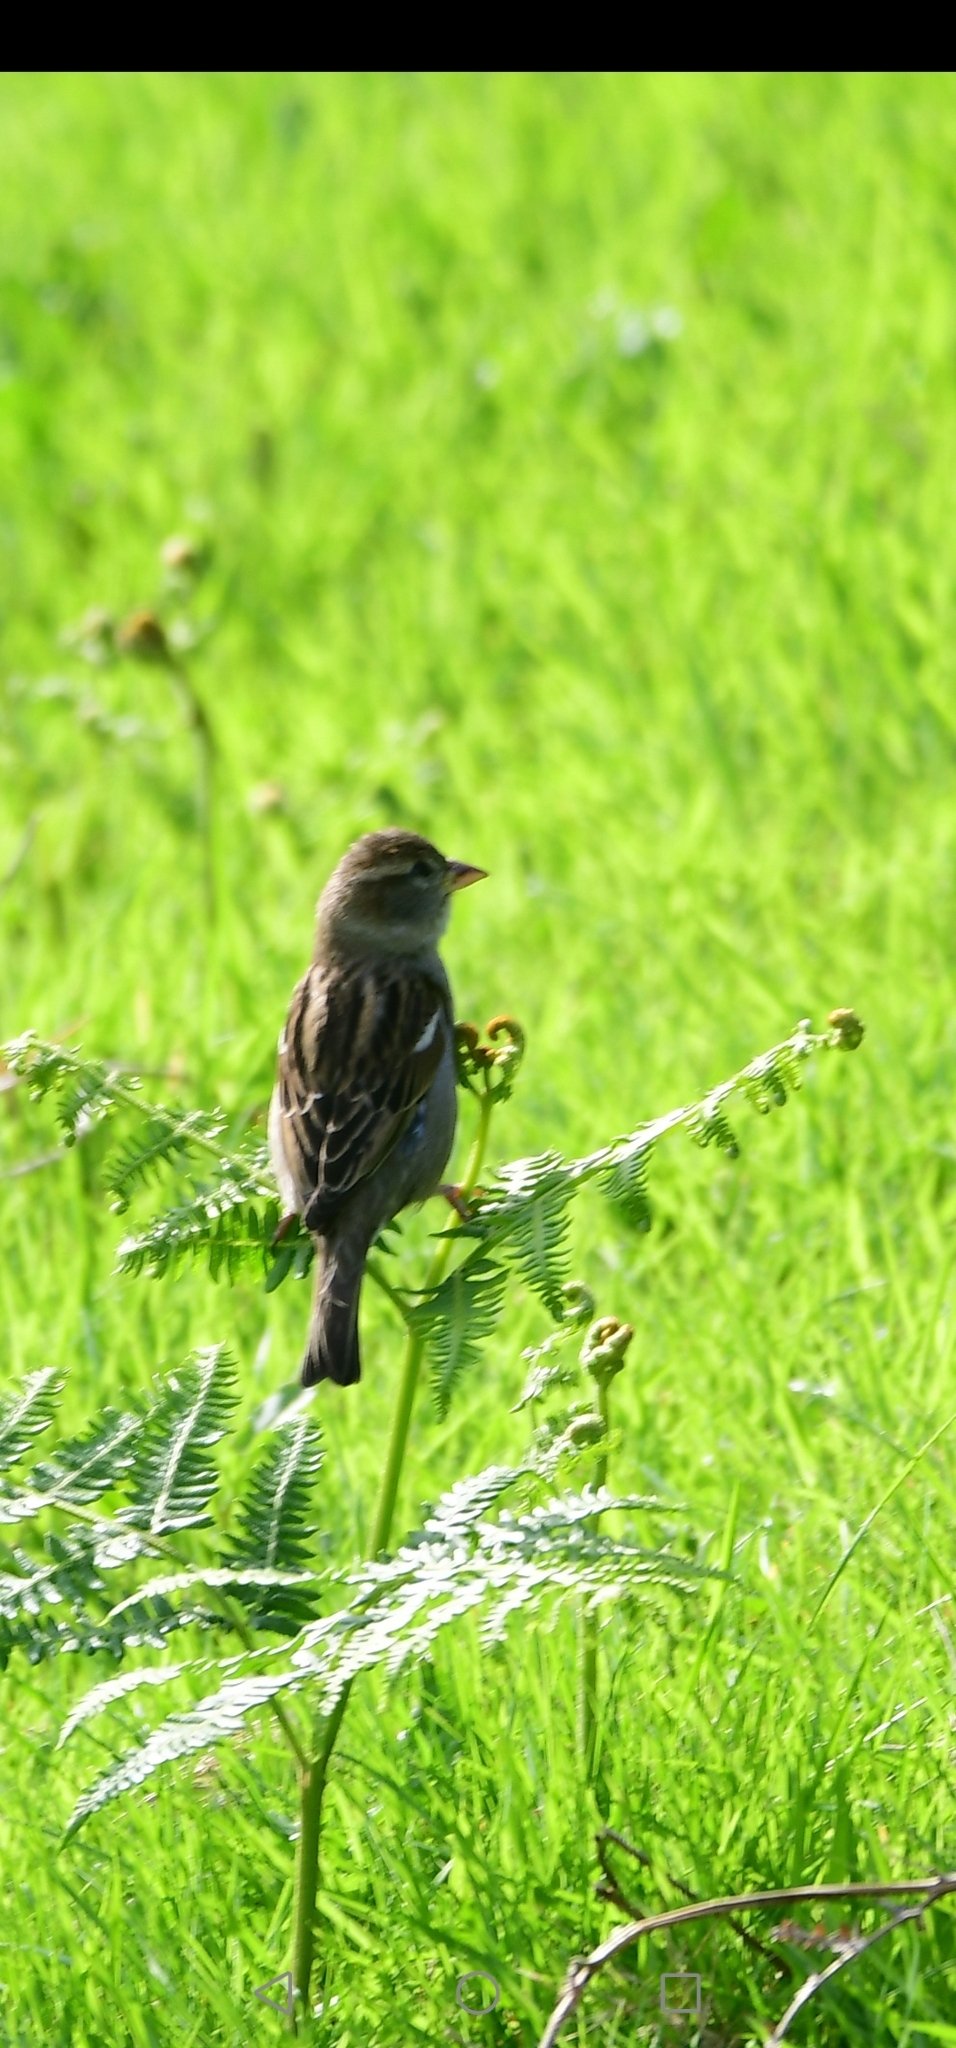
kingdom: Animalia
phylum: Chordata
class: Aves
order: Passeriformes
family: Passeridae
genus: Passer
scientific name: Passer domesticus
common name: House sparrow
